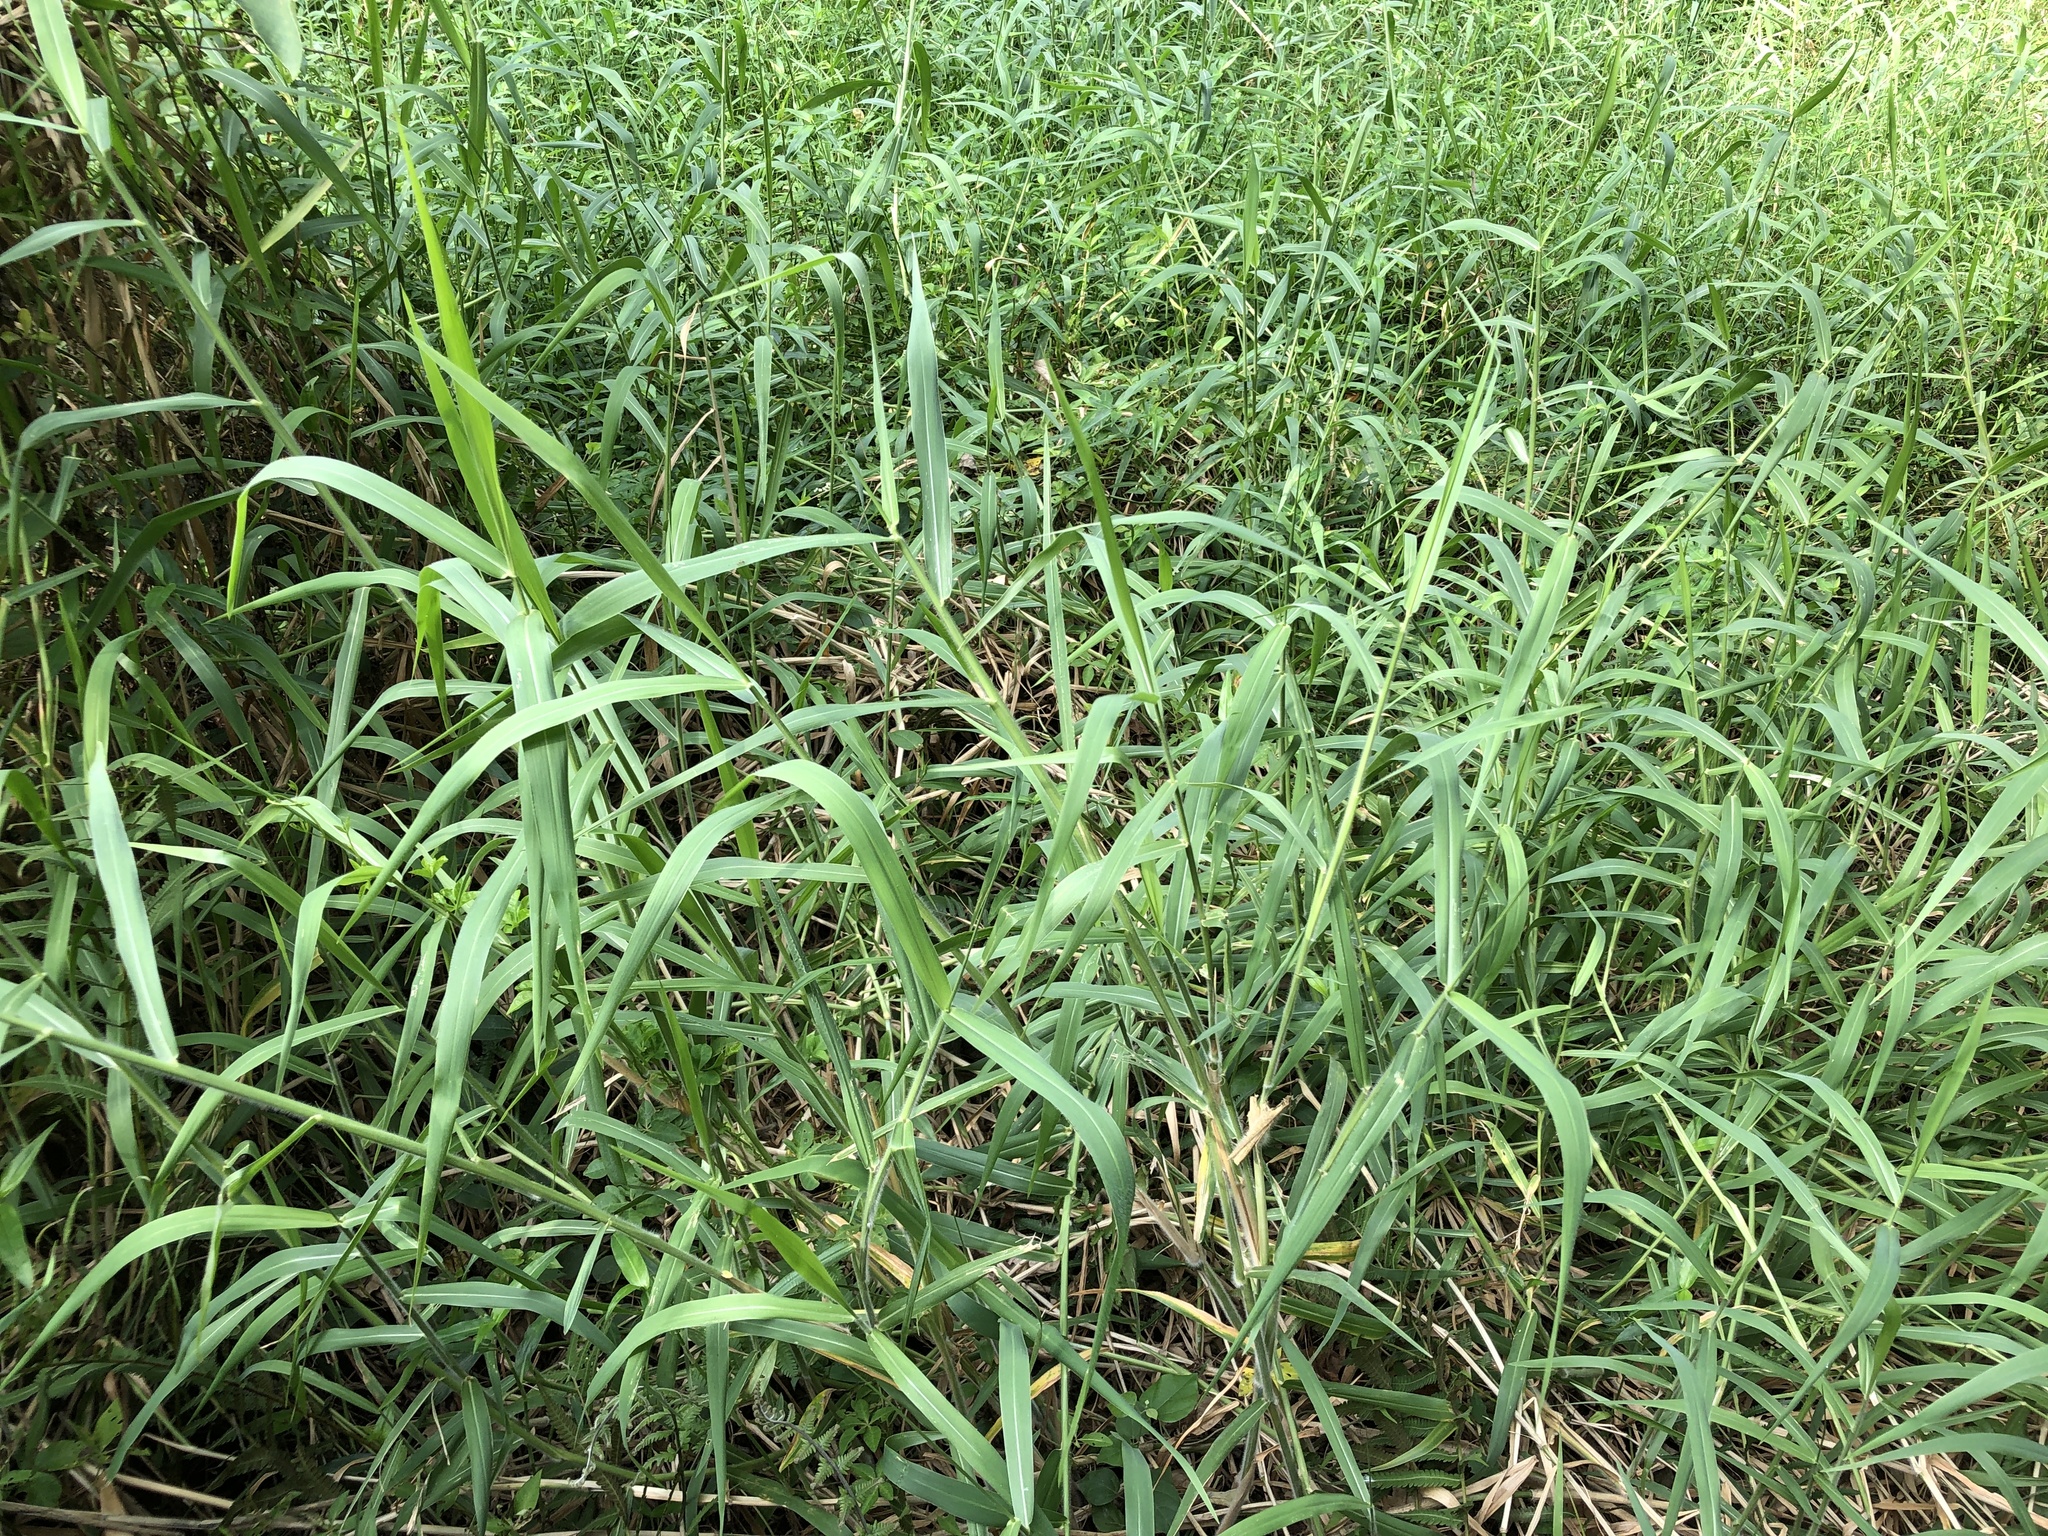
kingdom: Plantae
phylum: Tracheophyta
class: Liliopsida
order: Poales
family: Poaceae
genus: Urochloa
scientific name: Urochloa mutica
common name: Para grass
